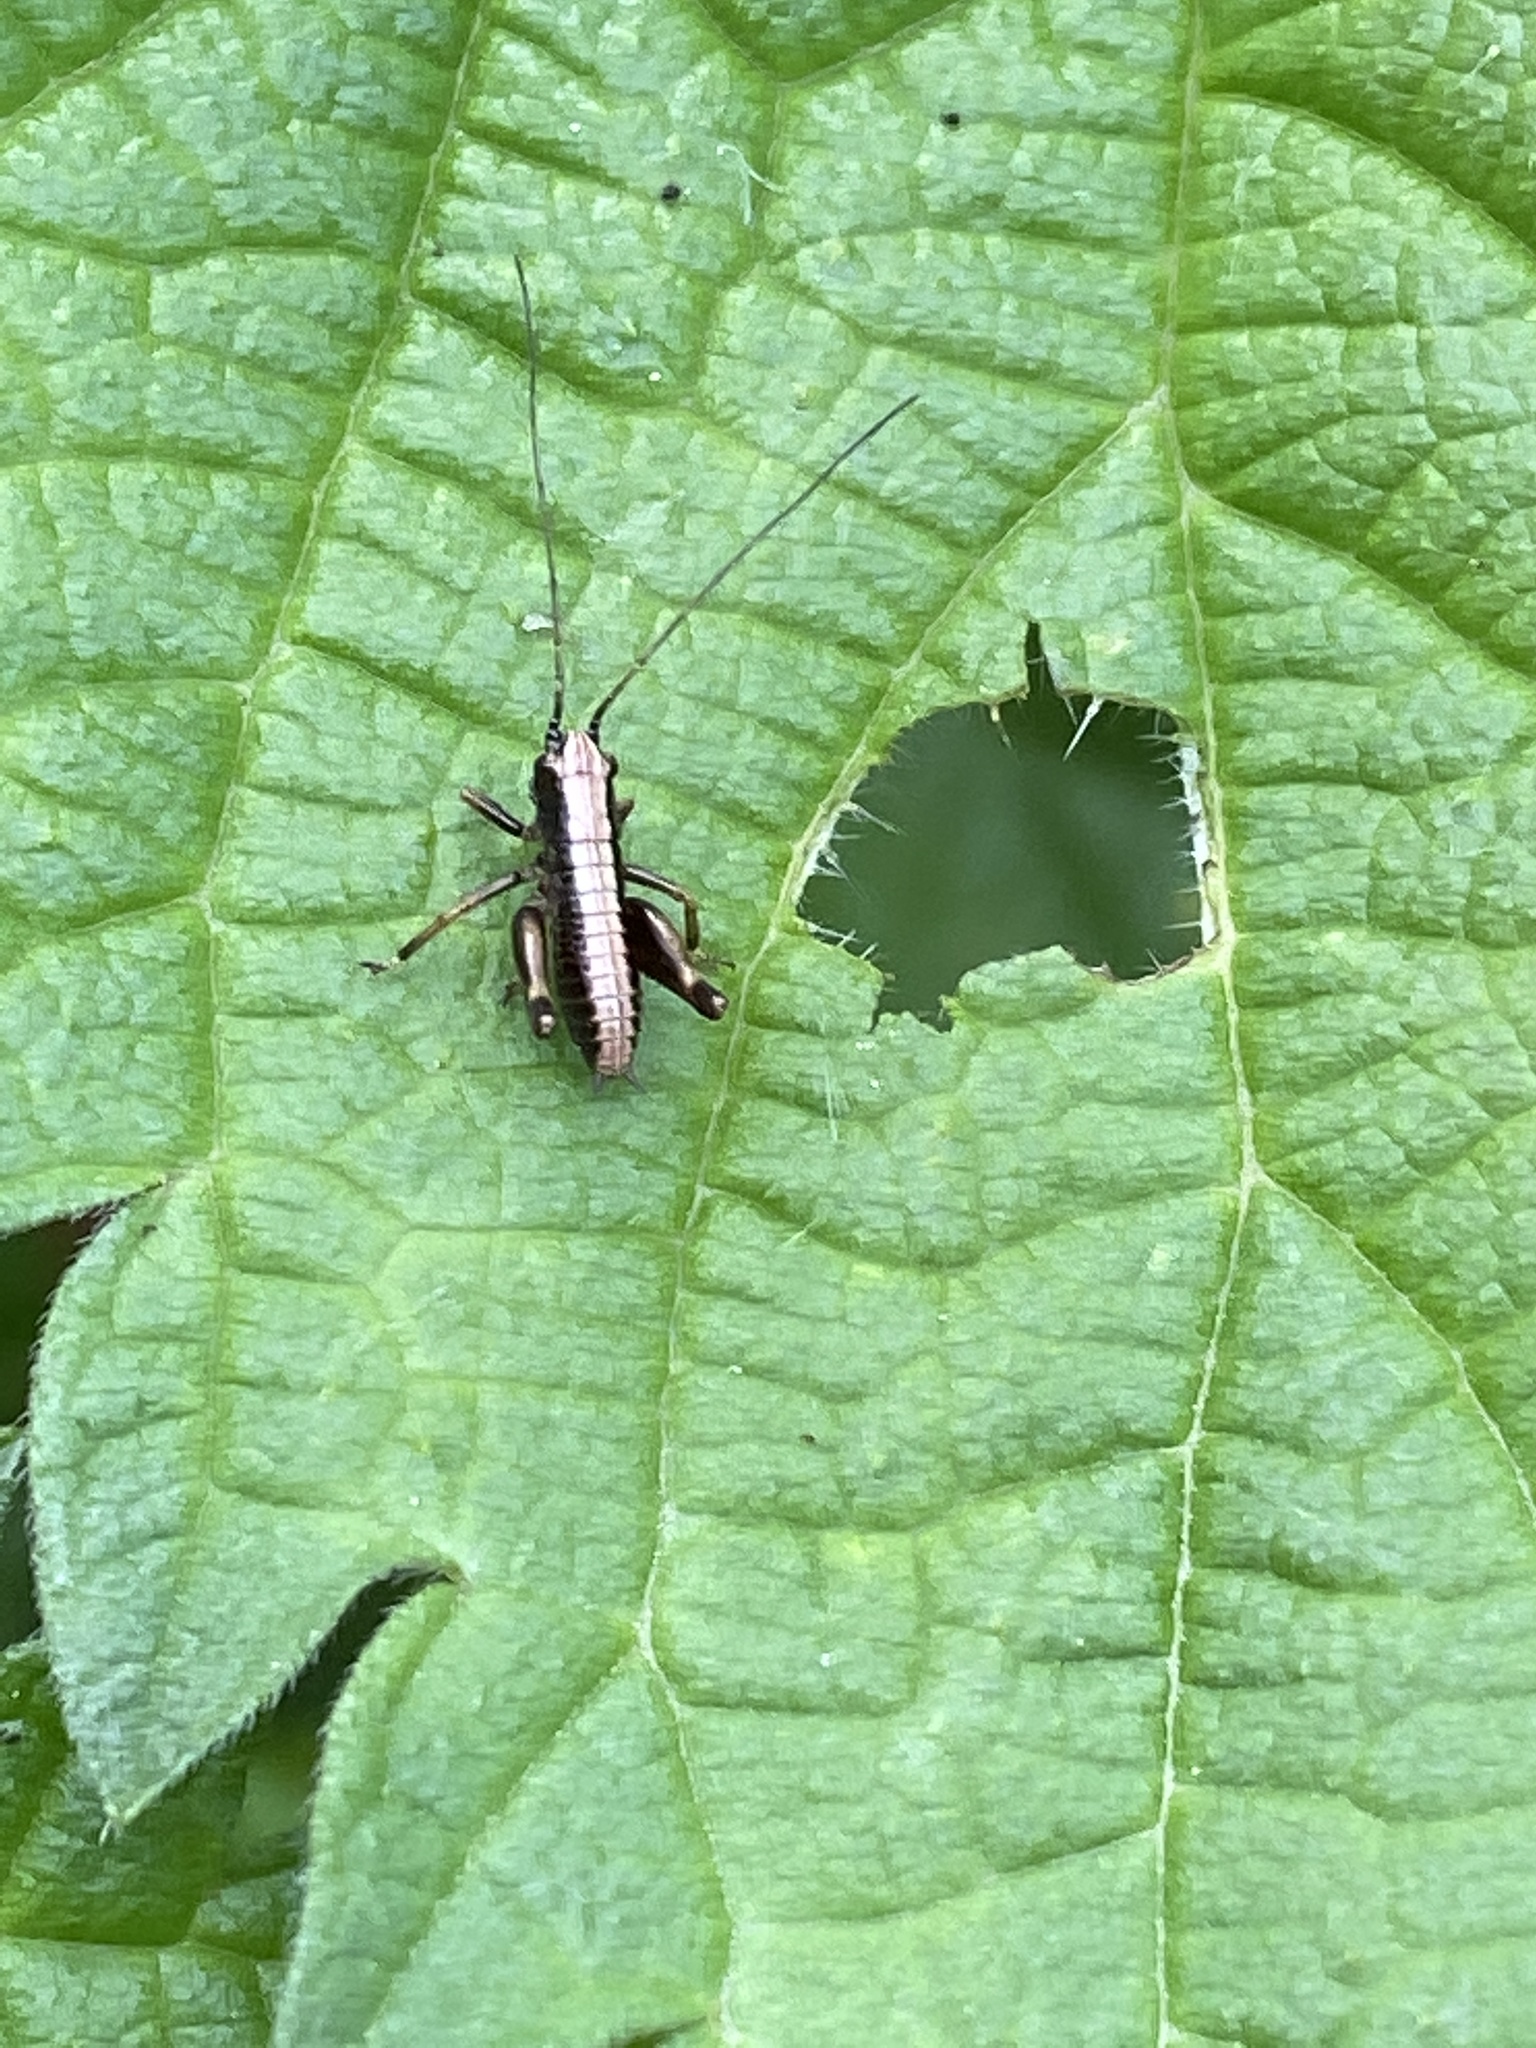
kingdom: Animalia
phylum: Arthropoda
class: Insecta
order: Orthoptera
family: Tettigoniidae
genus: Pholidoptera
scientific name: Pholidoptera griseoaptera
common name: Dark bush-cricket
